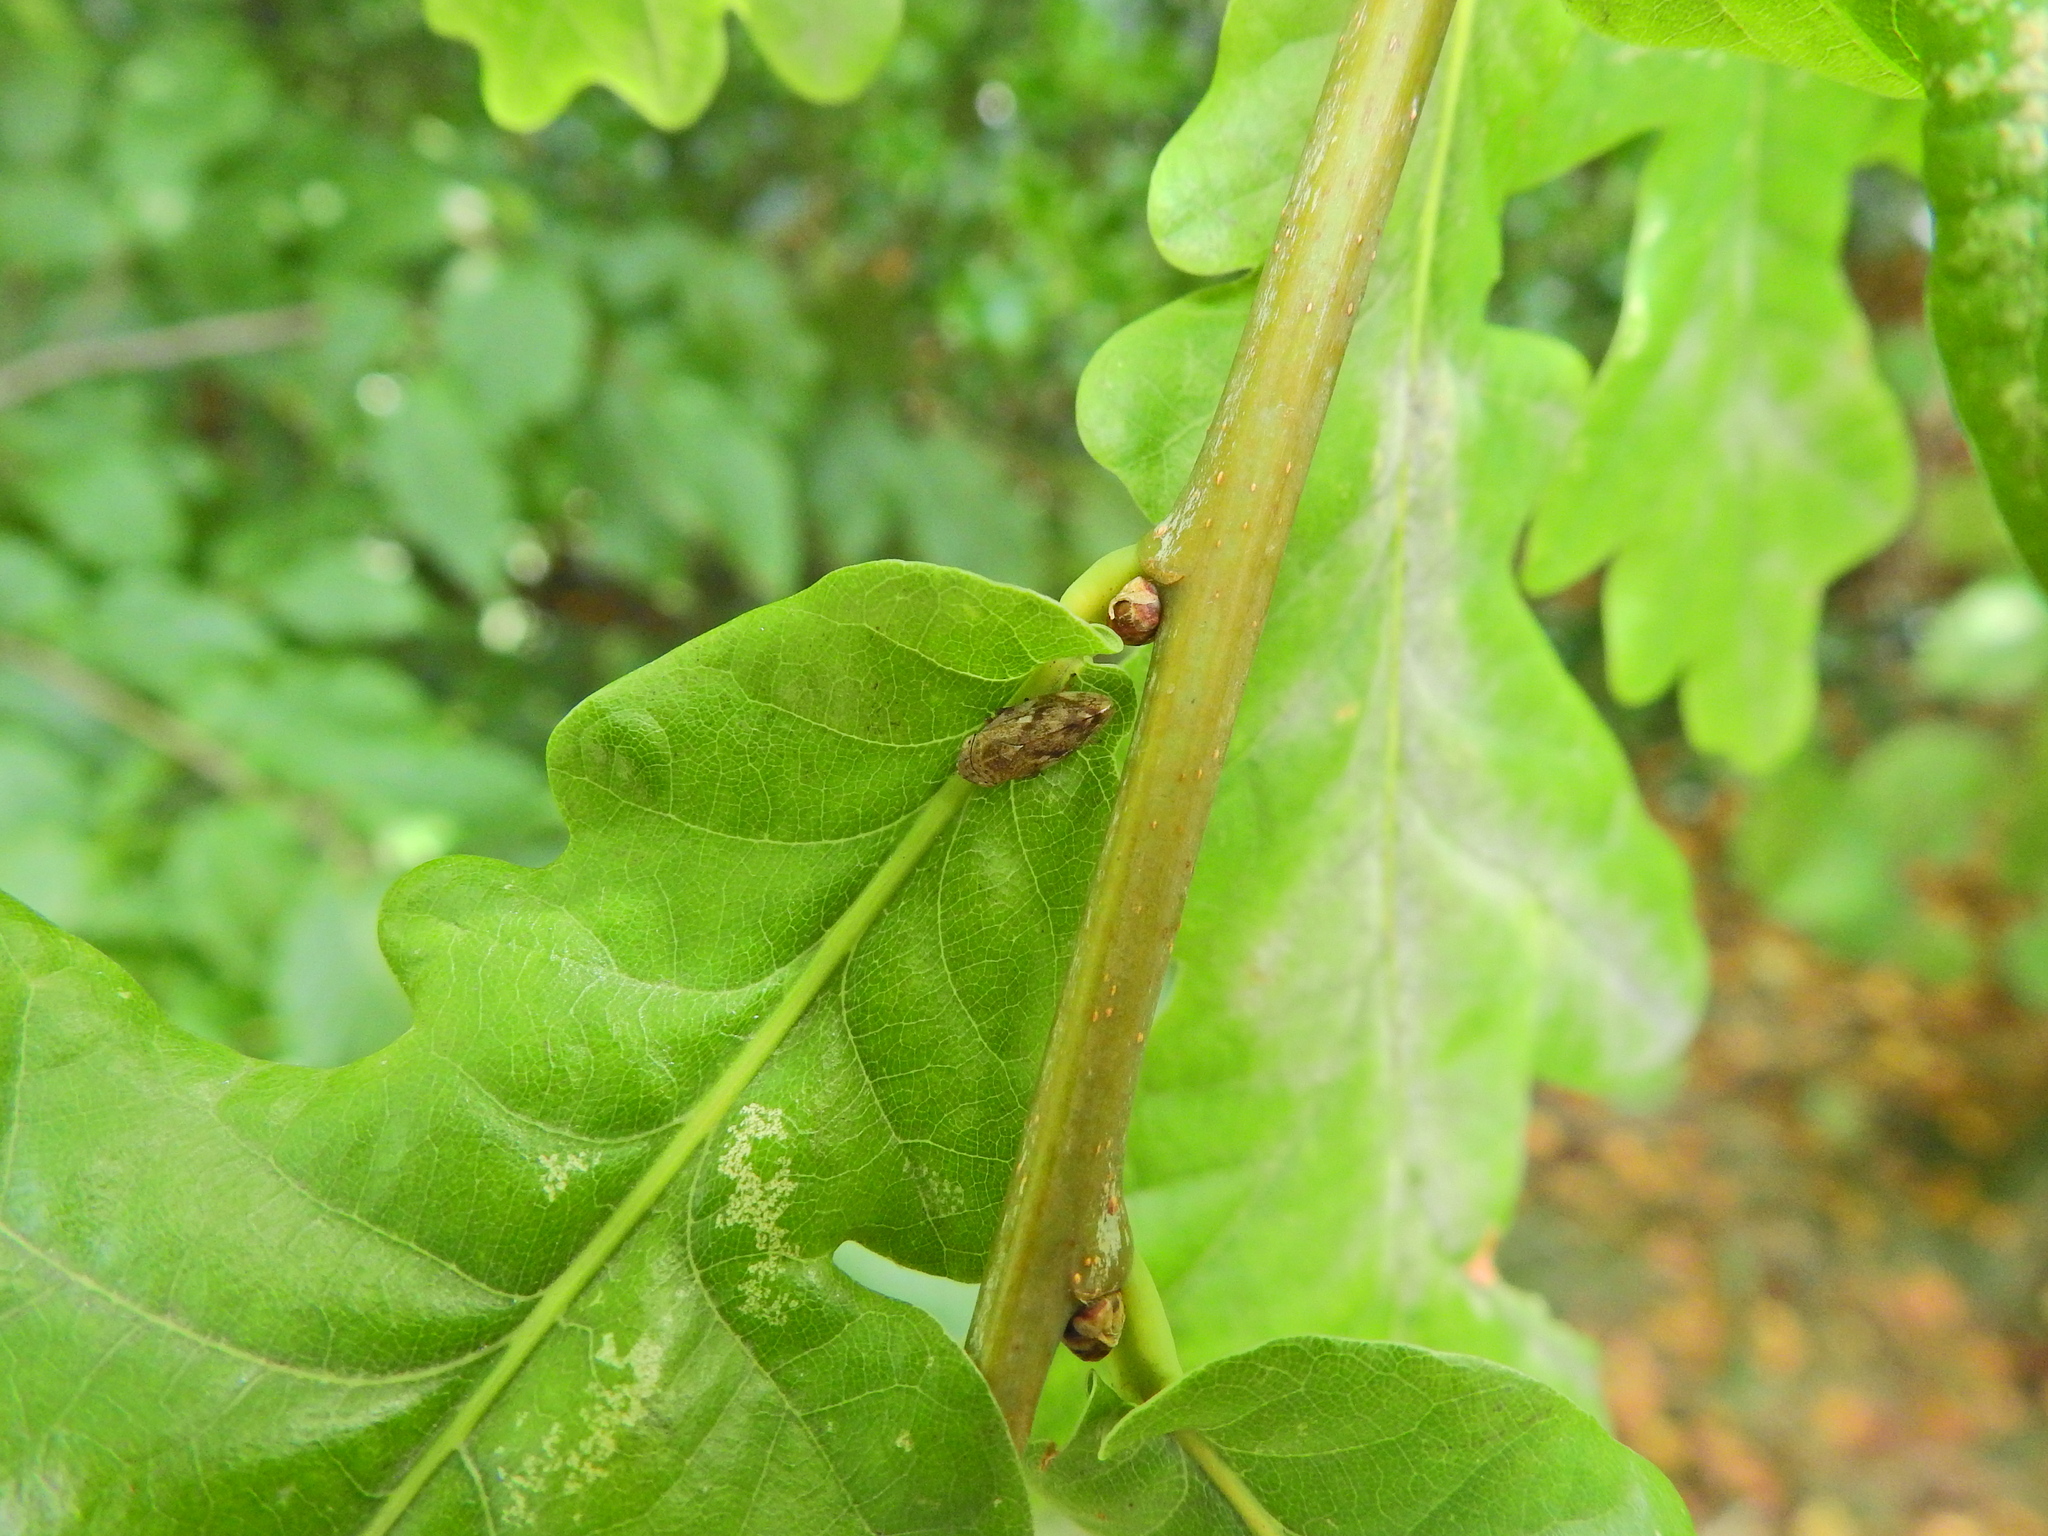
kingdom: Animalia
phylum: Arthropoda
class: Insecta
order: Hemiptera
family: Aphrophoridae
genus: Philaenus
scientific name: Philaenus spumarius
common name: Meadow spittlebug
